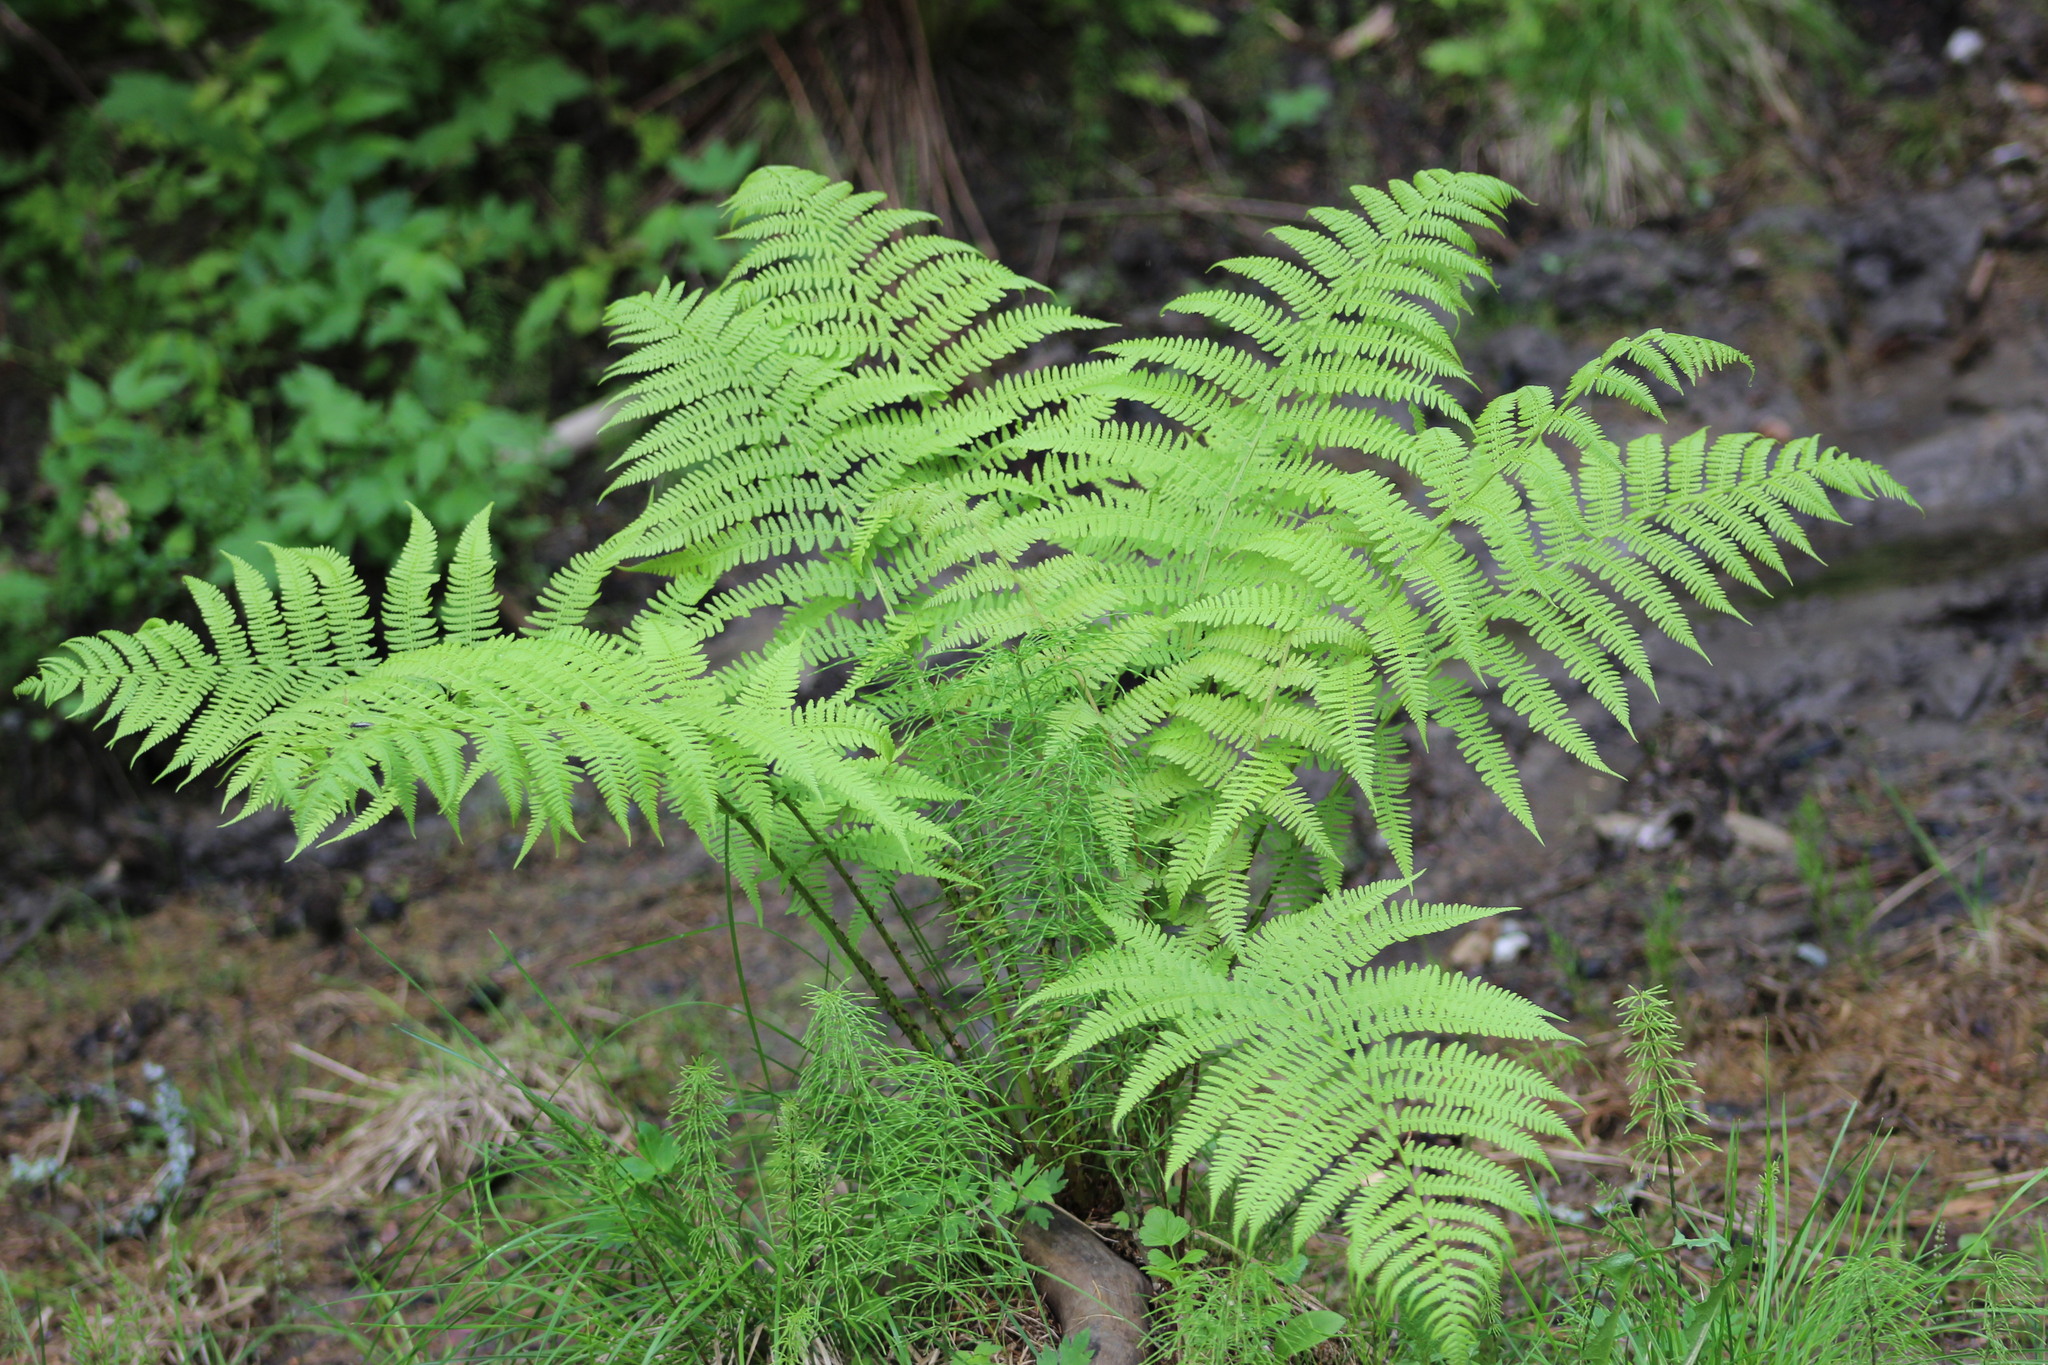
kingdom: Plantae
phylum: Tracheophyta
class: Polypodiopsida
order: Polypodiales
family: Athyriaceae
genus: Athyrium
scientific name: Athyrium filix-femina
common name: Lady fern
